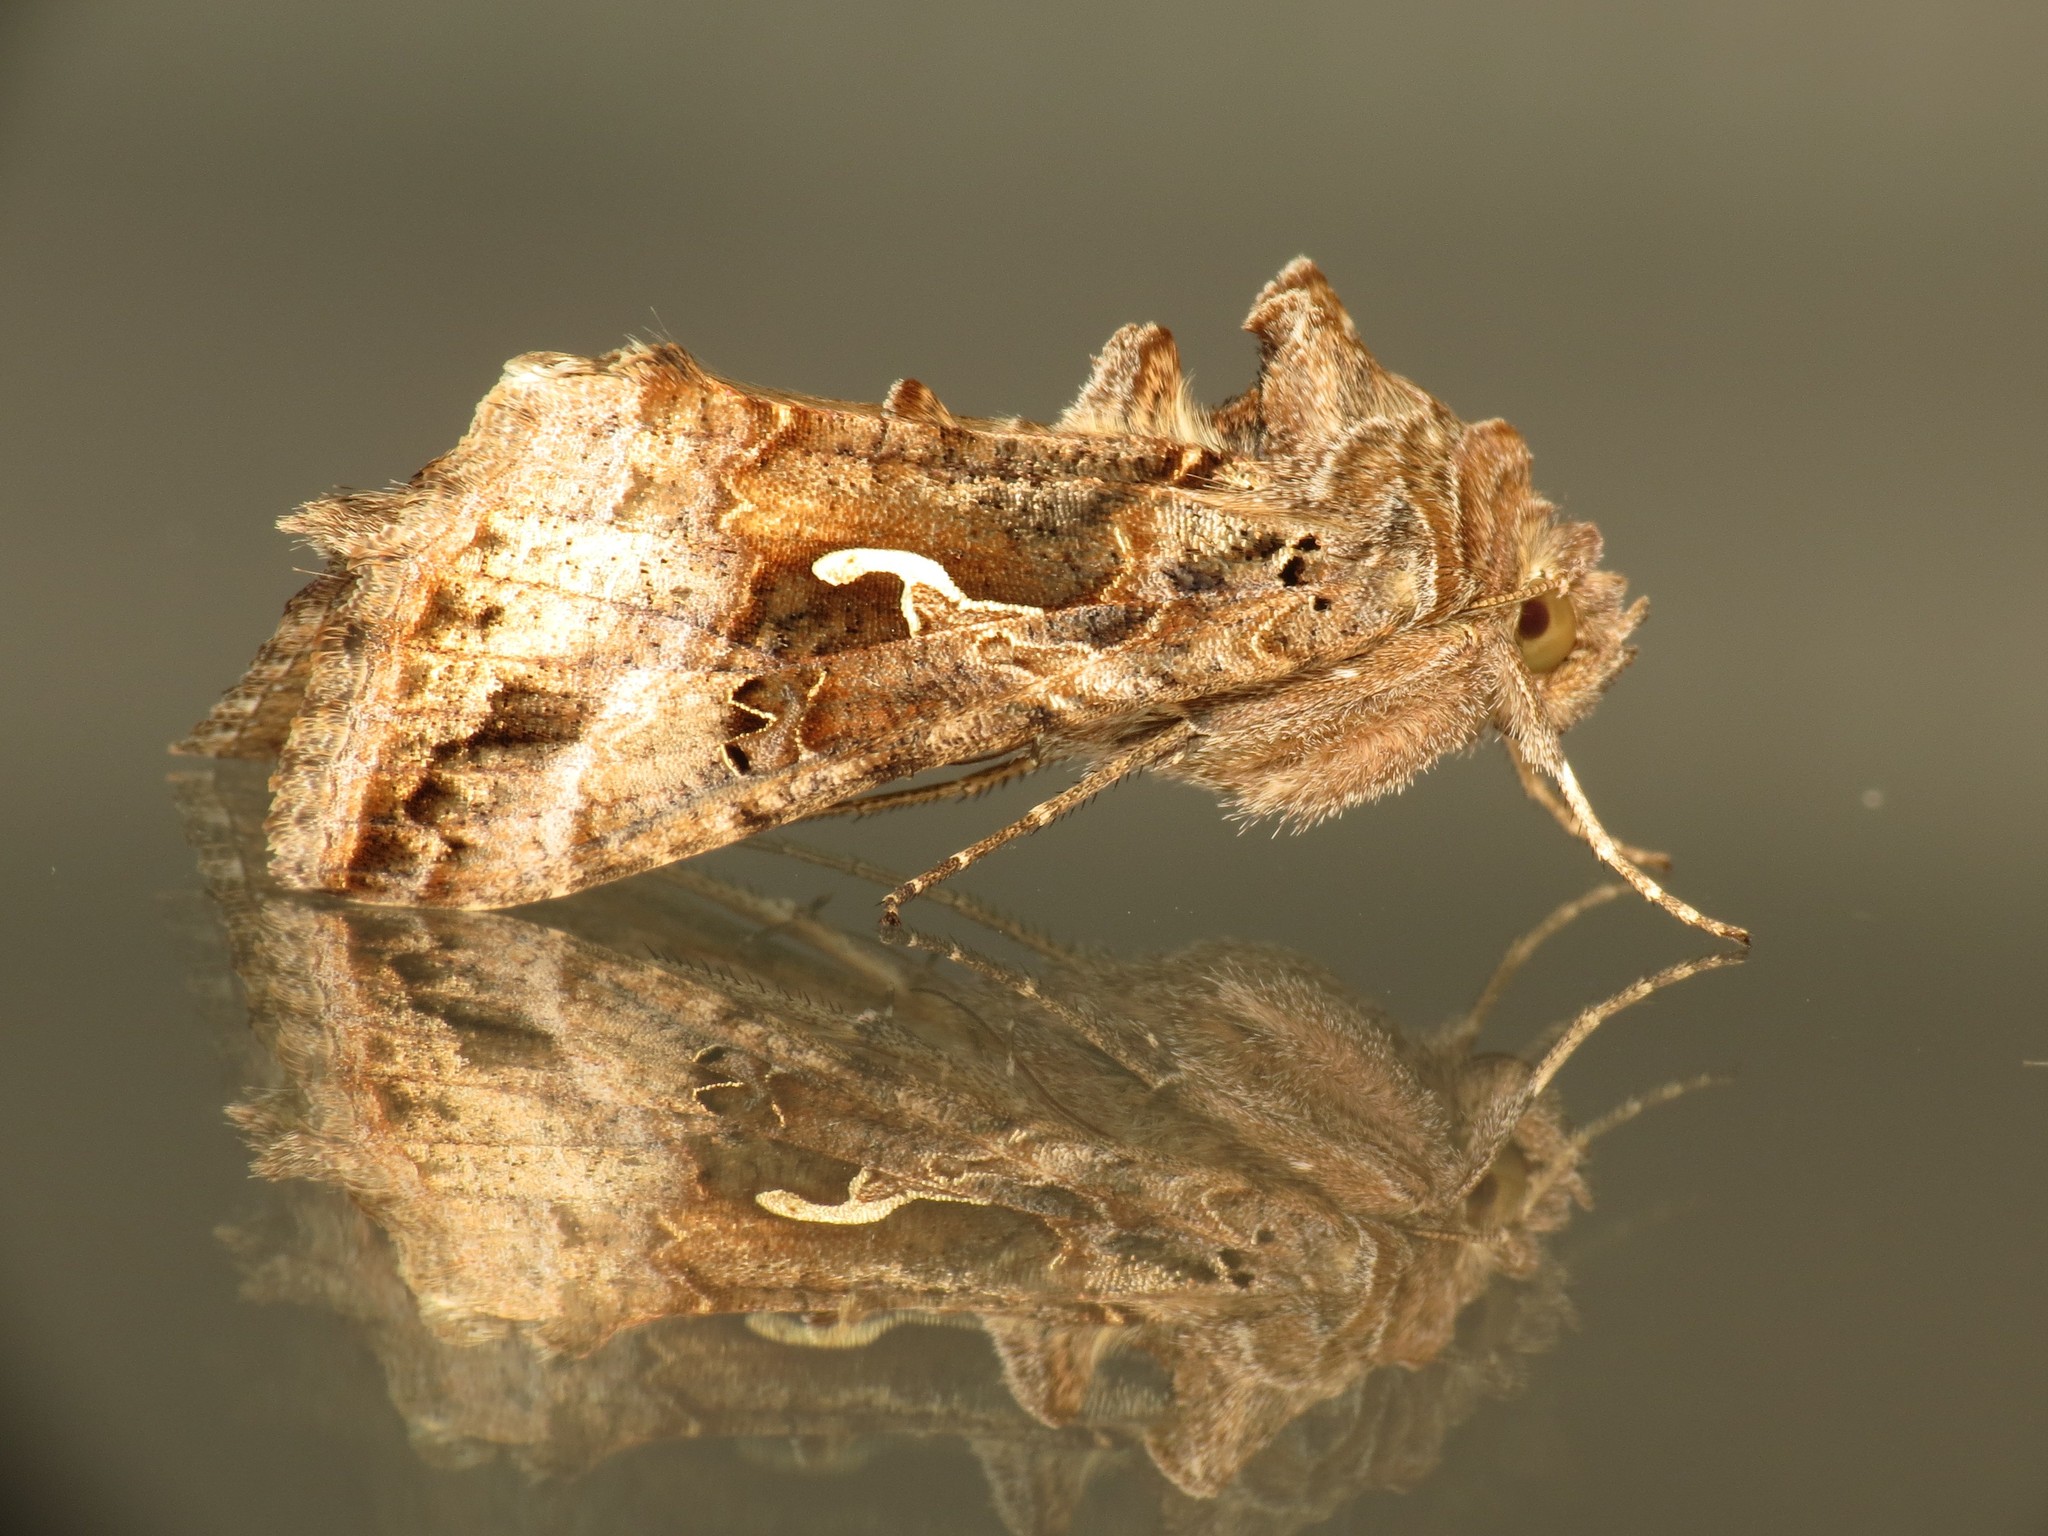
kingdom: Animalia
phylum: Arthropoda
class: Insecta
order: Lepidoptera
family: Noctuidae
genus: Autographa
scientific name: Autographa gamma
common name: Silver y
